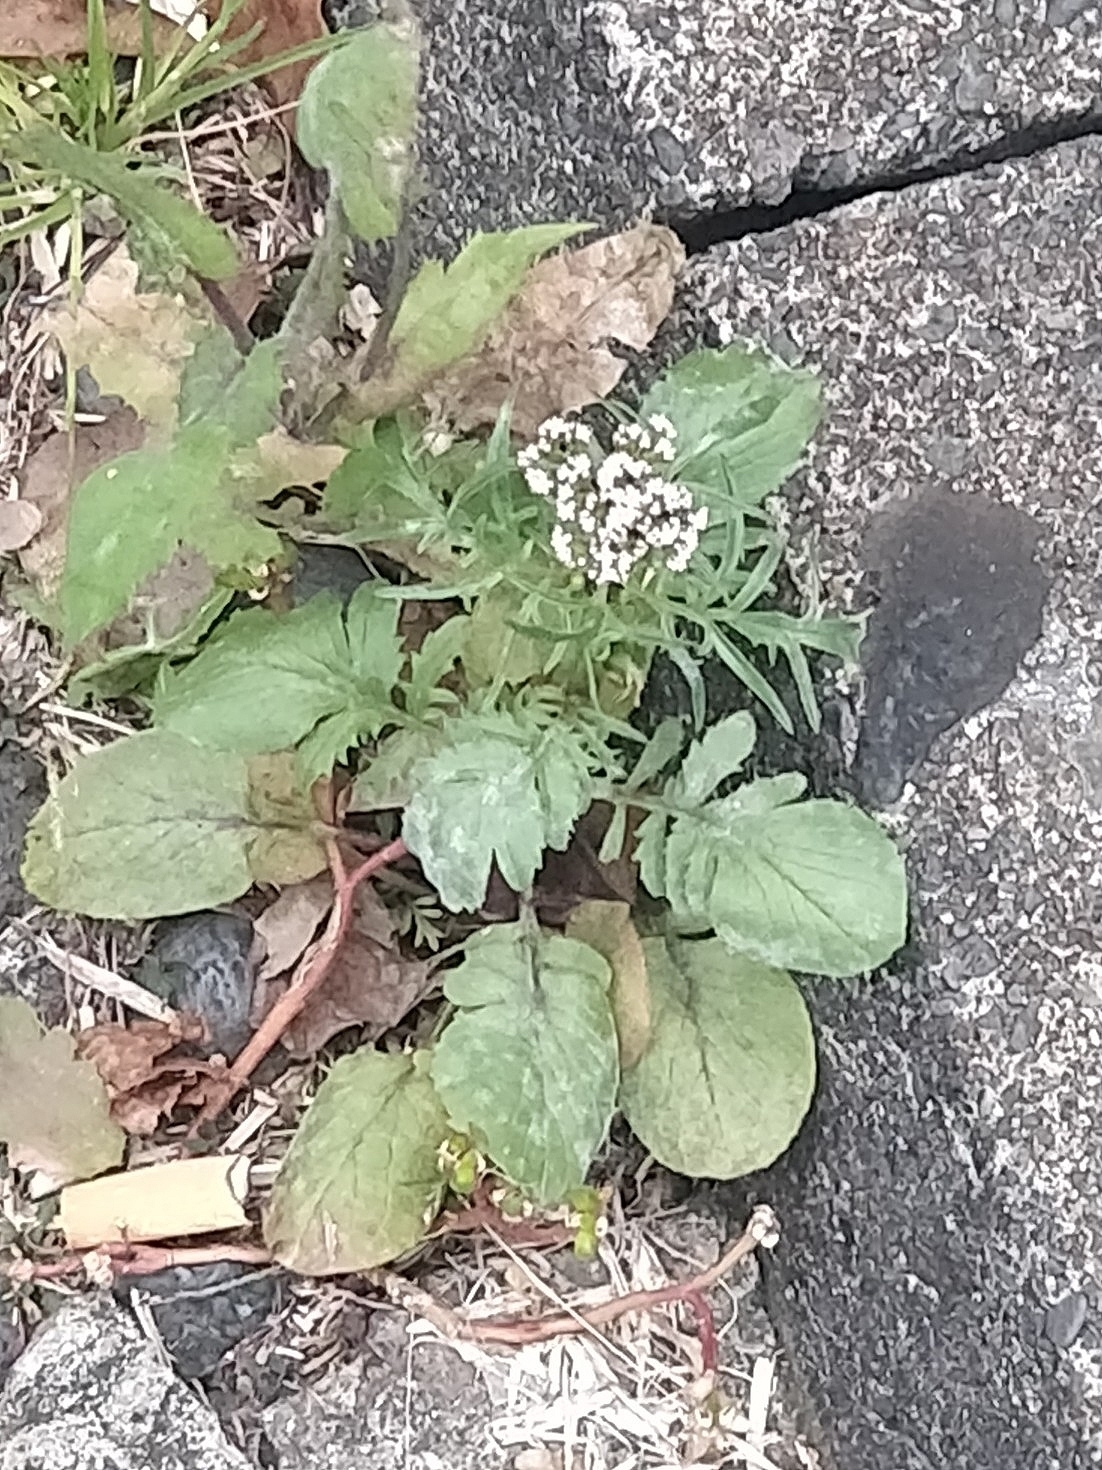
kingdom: Plantae
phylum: Tracheophyta
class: Magnoliopsida
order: Dipsacales
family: Caprifoliaceae
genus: Centranthus
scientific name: Centranthus calcitrapae
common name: Annual valerian
